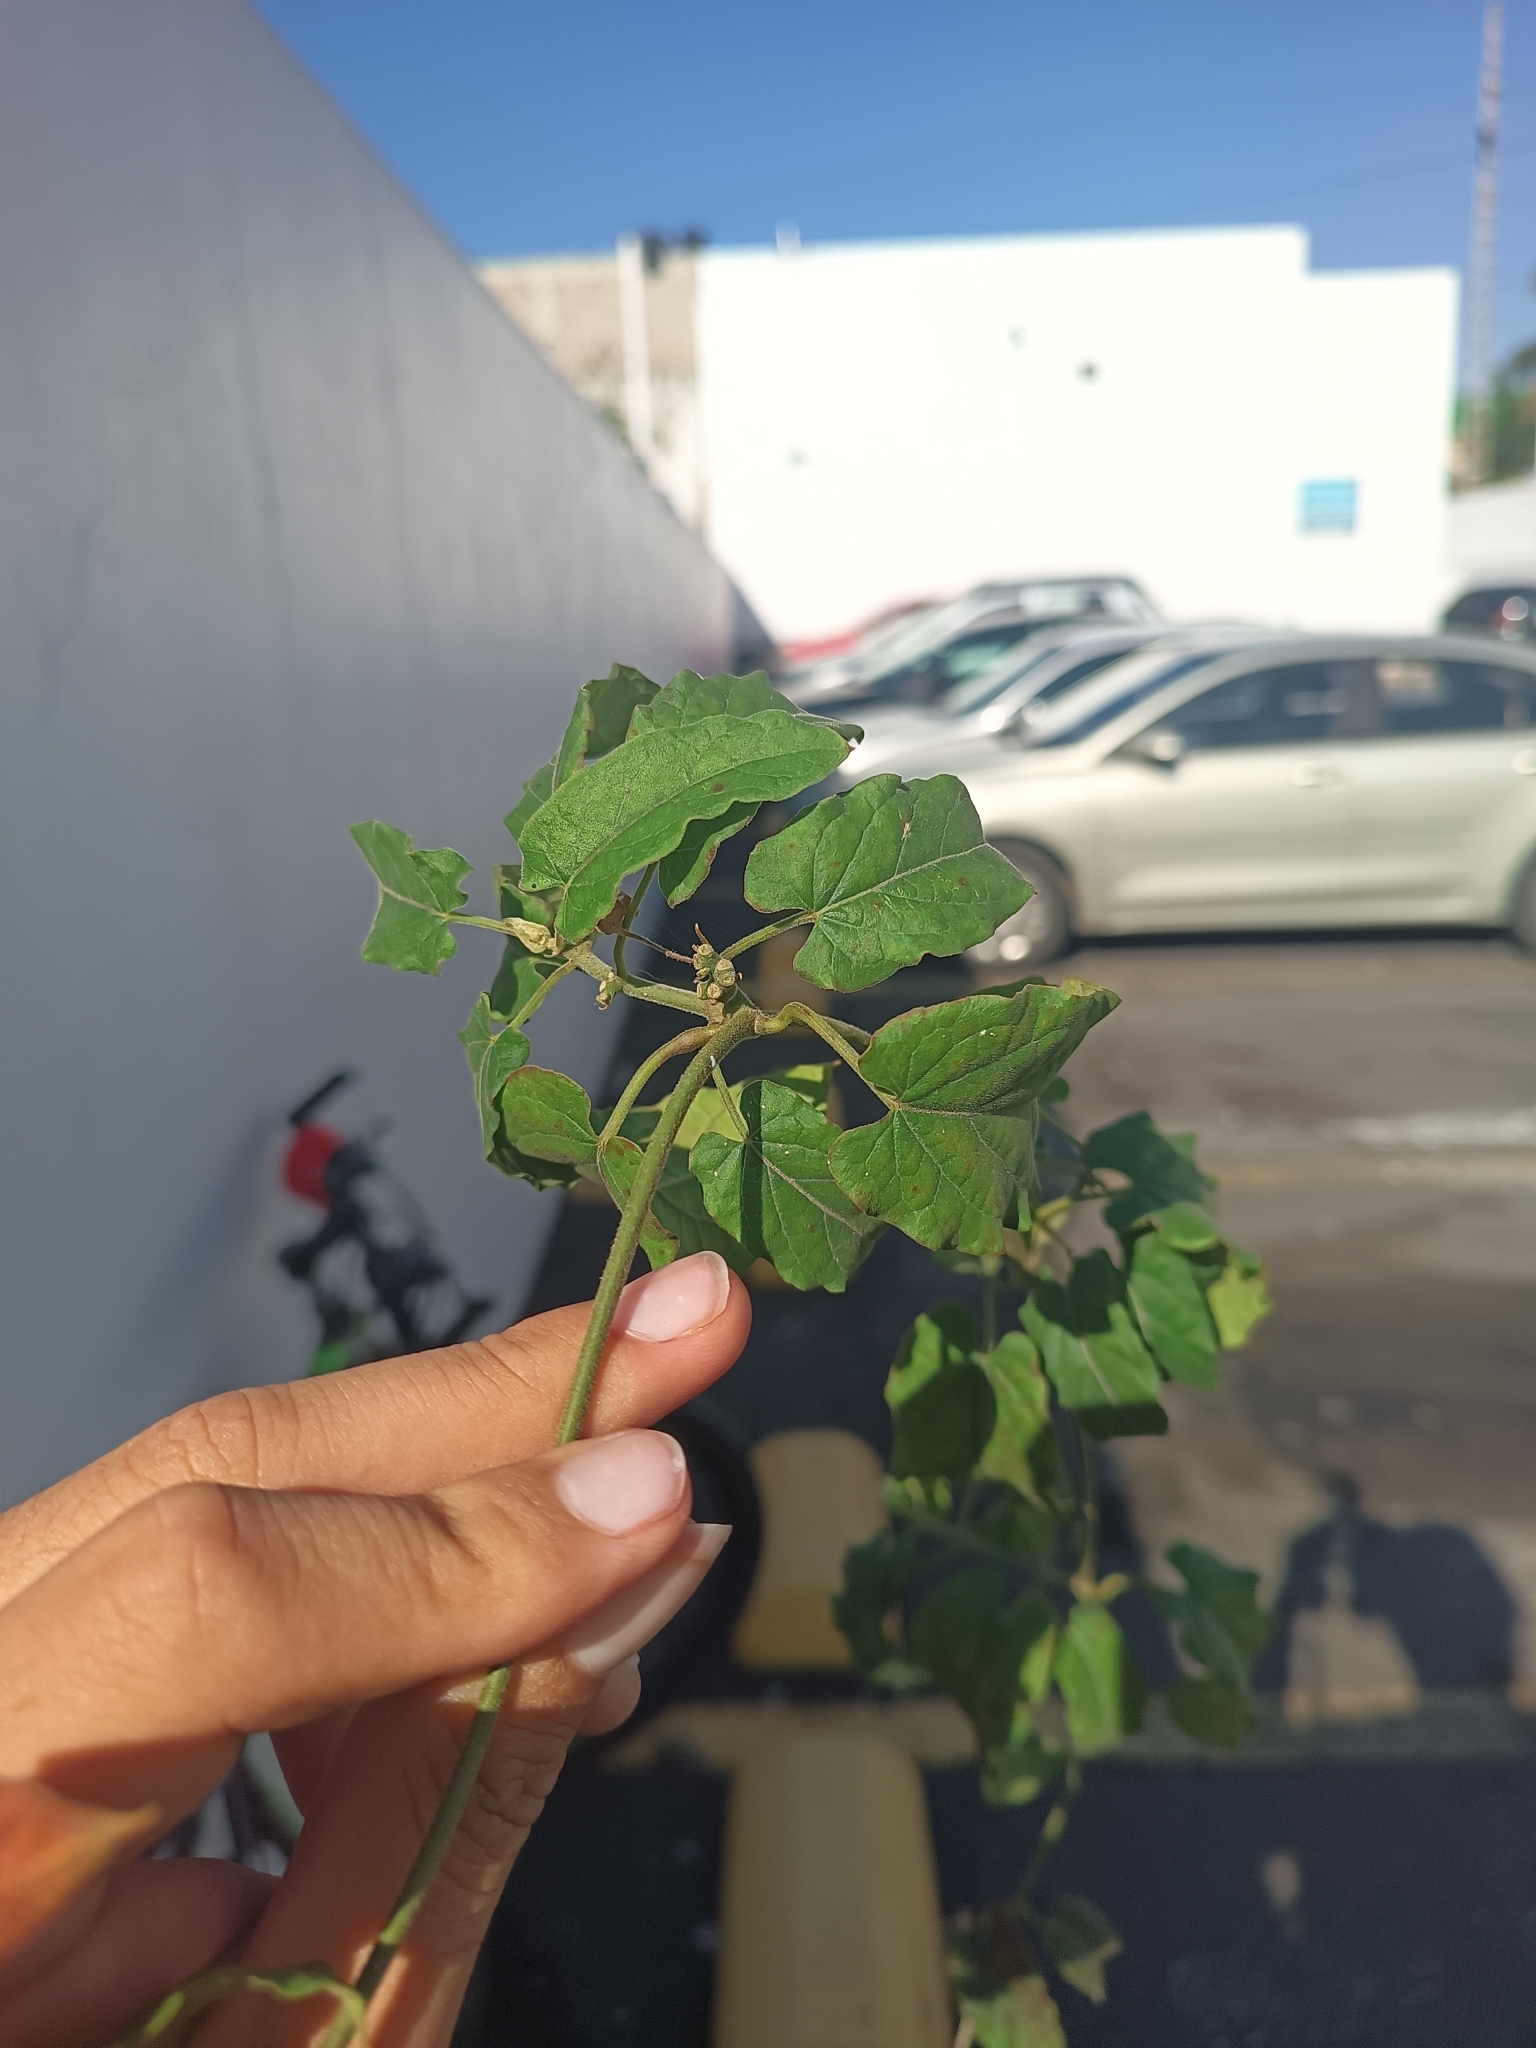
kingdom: Plantae
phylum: Tracheophyta
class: Magnoliopsida
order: Gentianales
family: Apocynaceae
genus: Gonolobus
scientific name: Gonolobus erianthus
